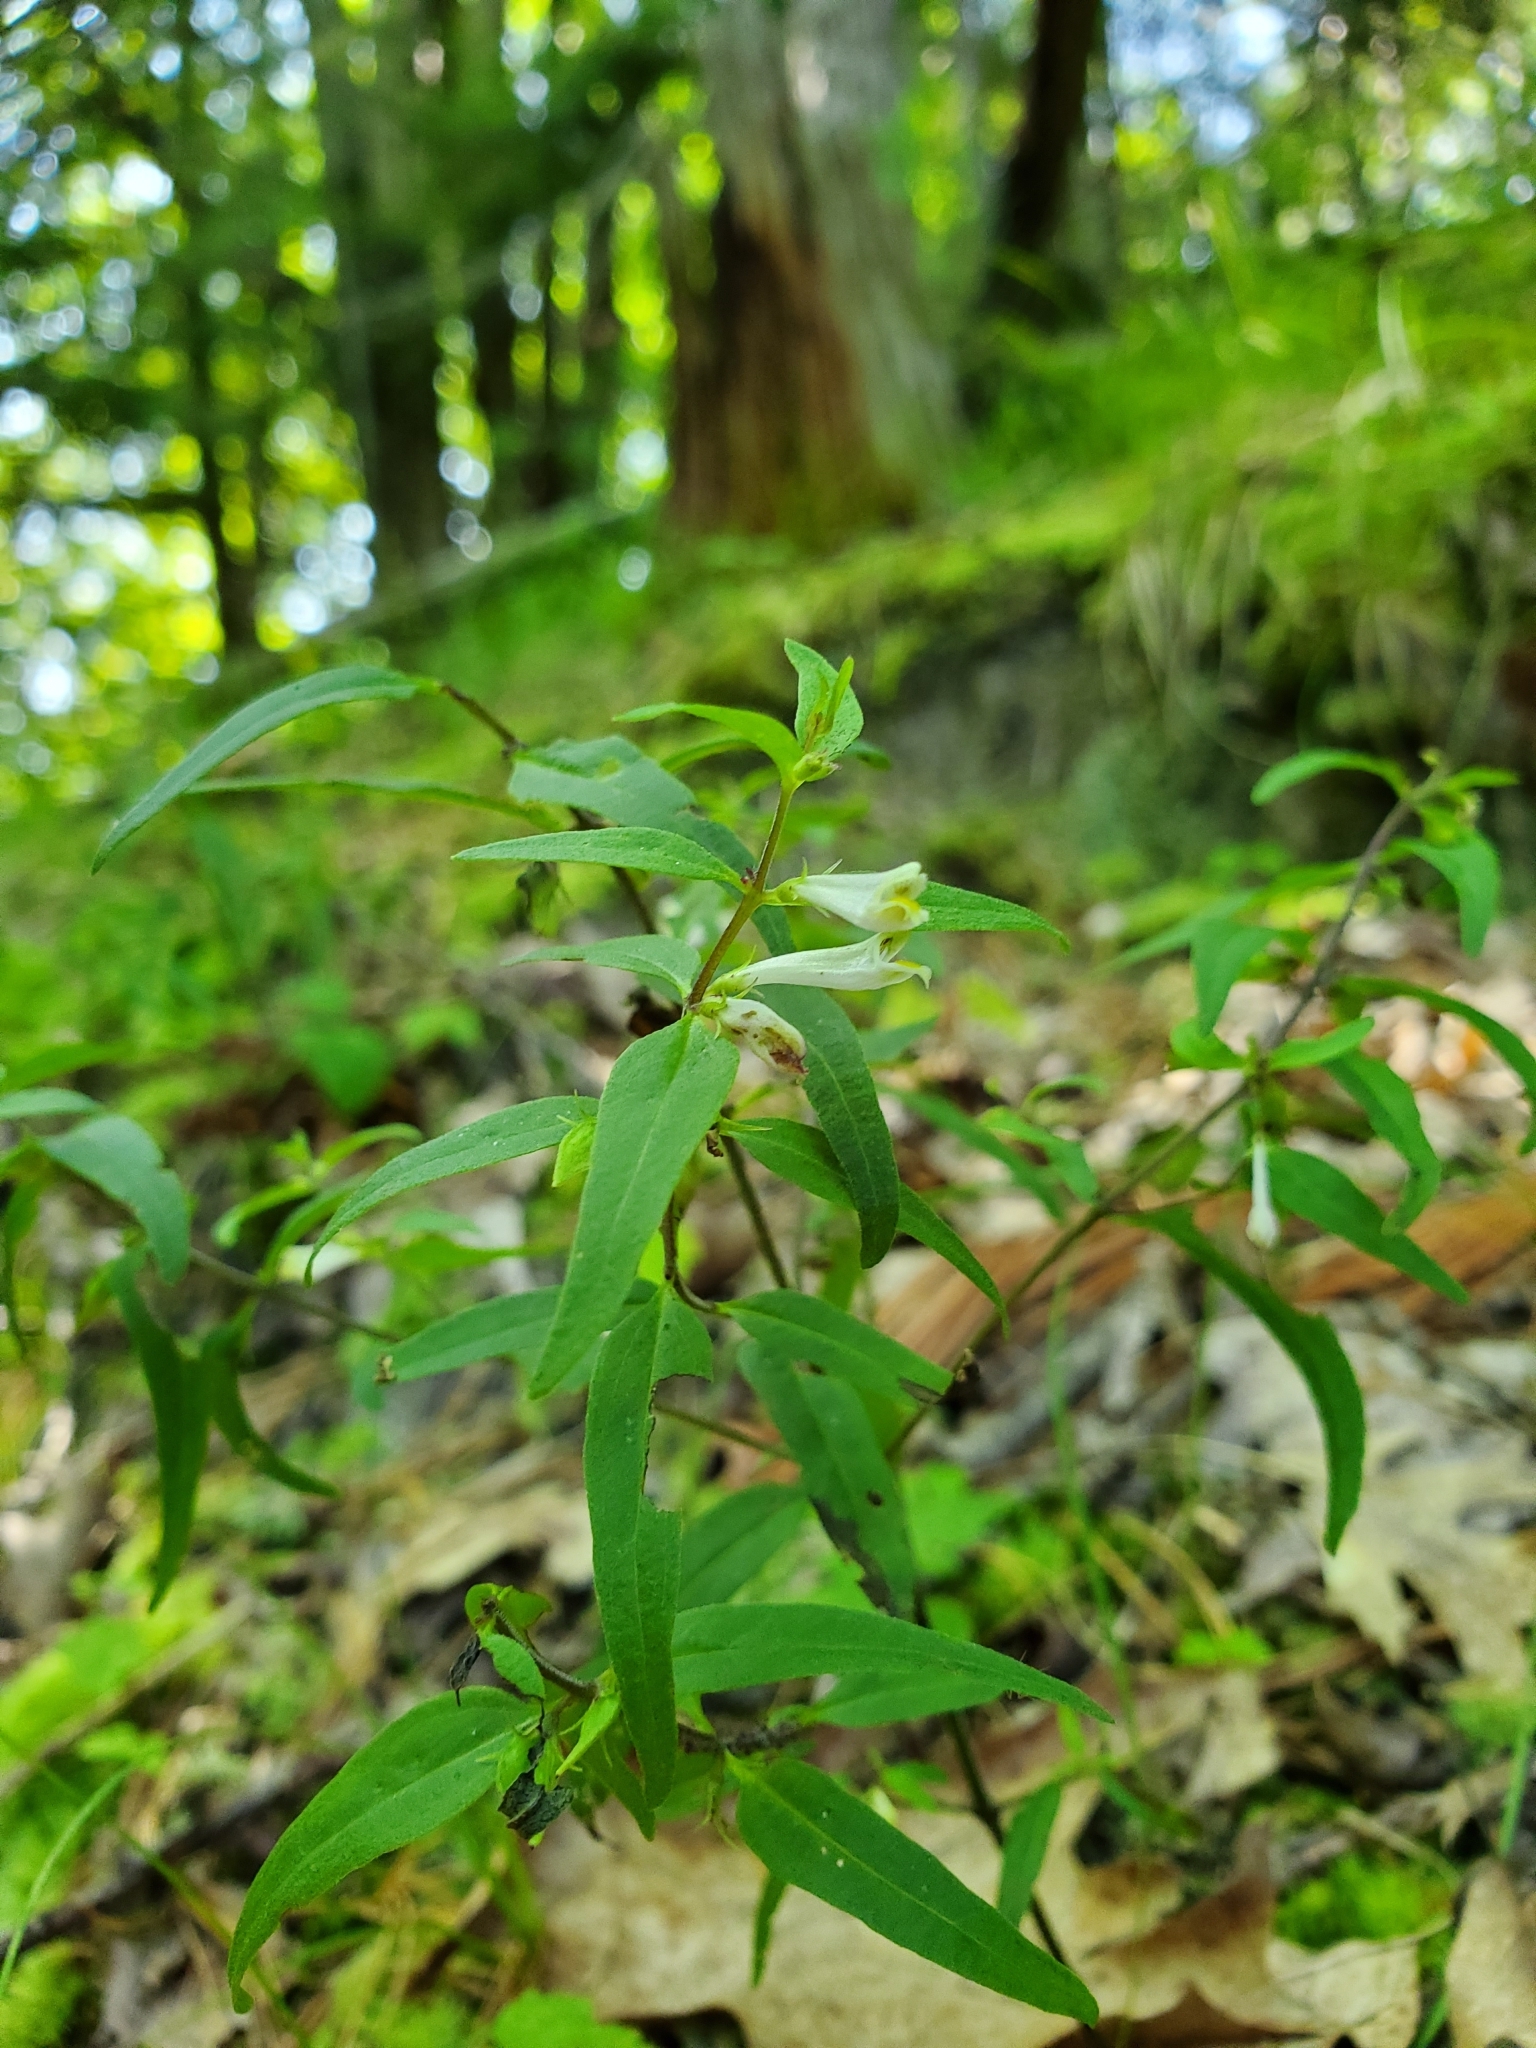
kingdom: Plantae
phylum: Tracheophyta
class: Magnoliopsida
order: Lamiales
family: Orobanchaceae
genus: Melampyrum
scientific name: Melampyrum lineare
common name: American cow-wheat
